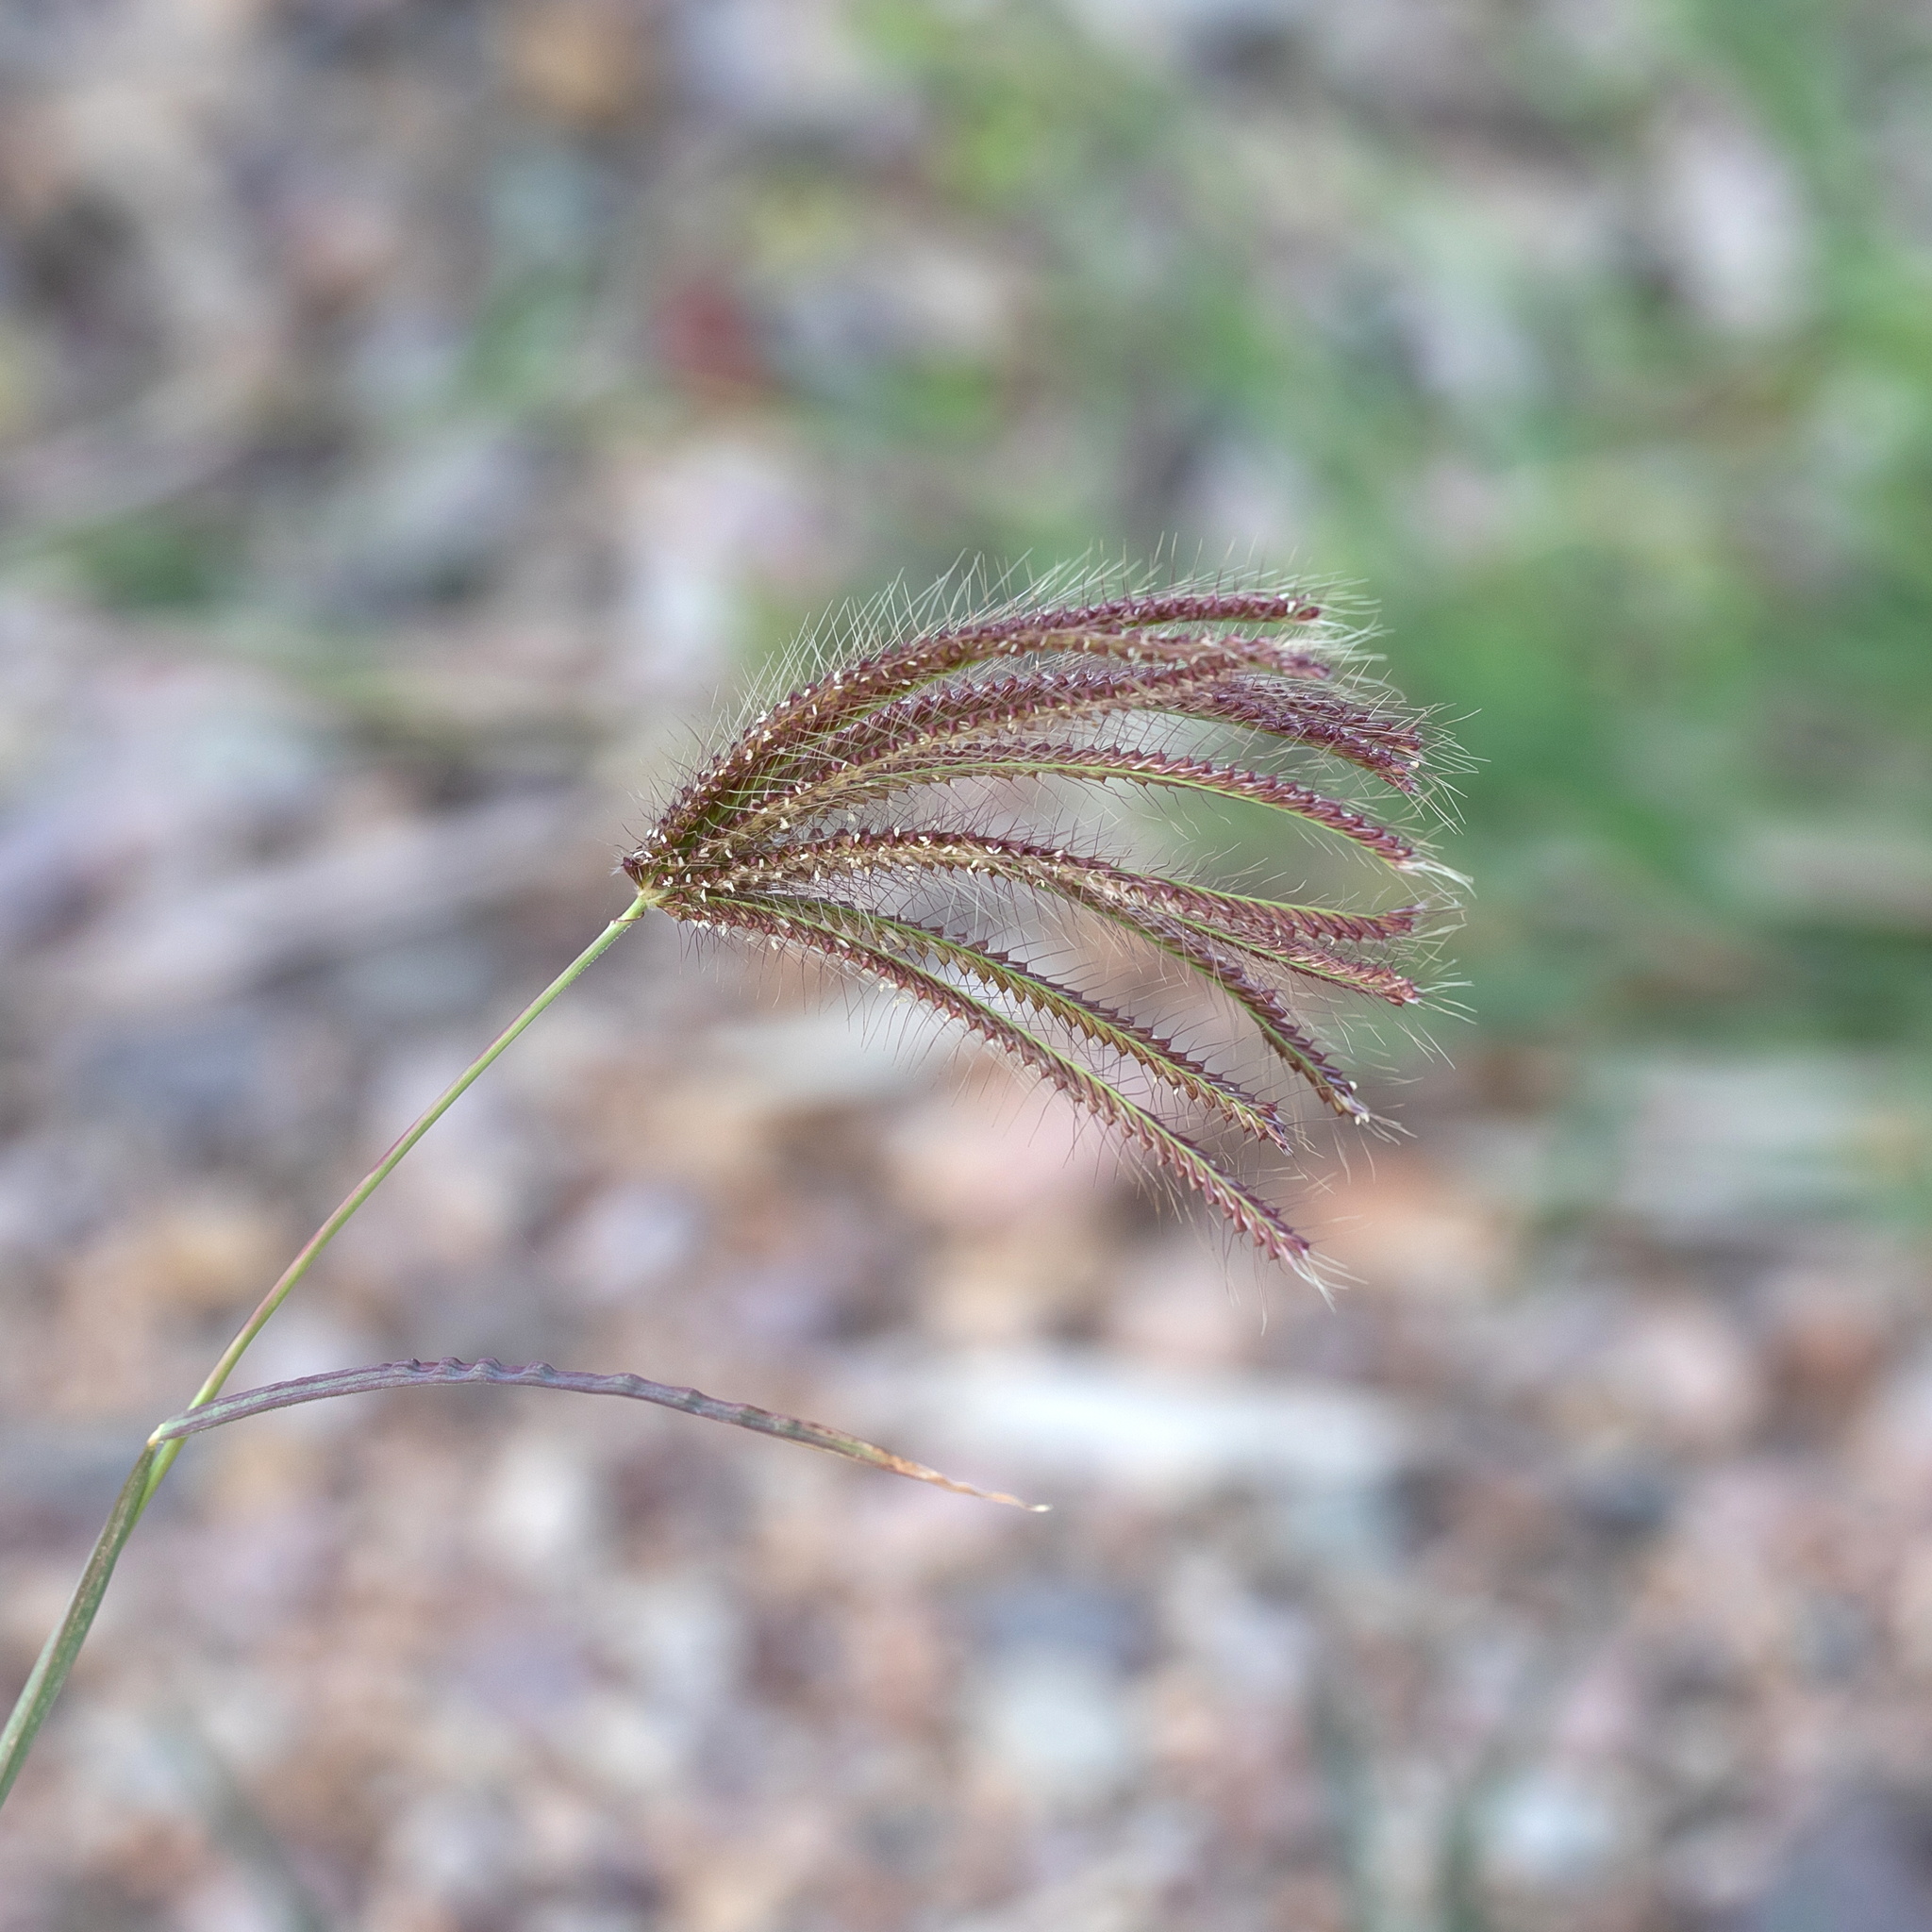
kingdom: Plantae
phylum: Tracheophyta
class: Liliopsida
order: Poales
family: Poaceae
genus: Chloris
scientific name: Chloris barbata
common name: Swollen fingergrass
